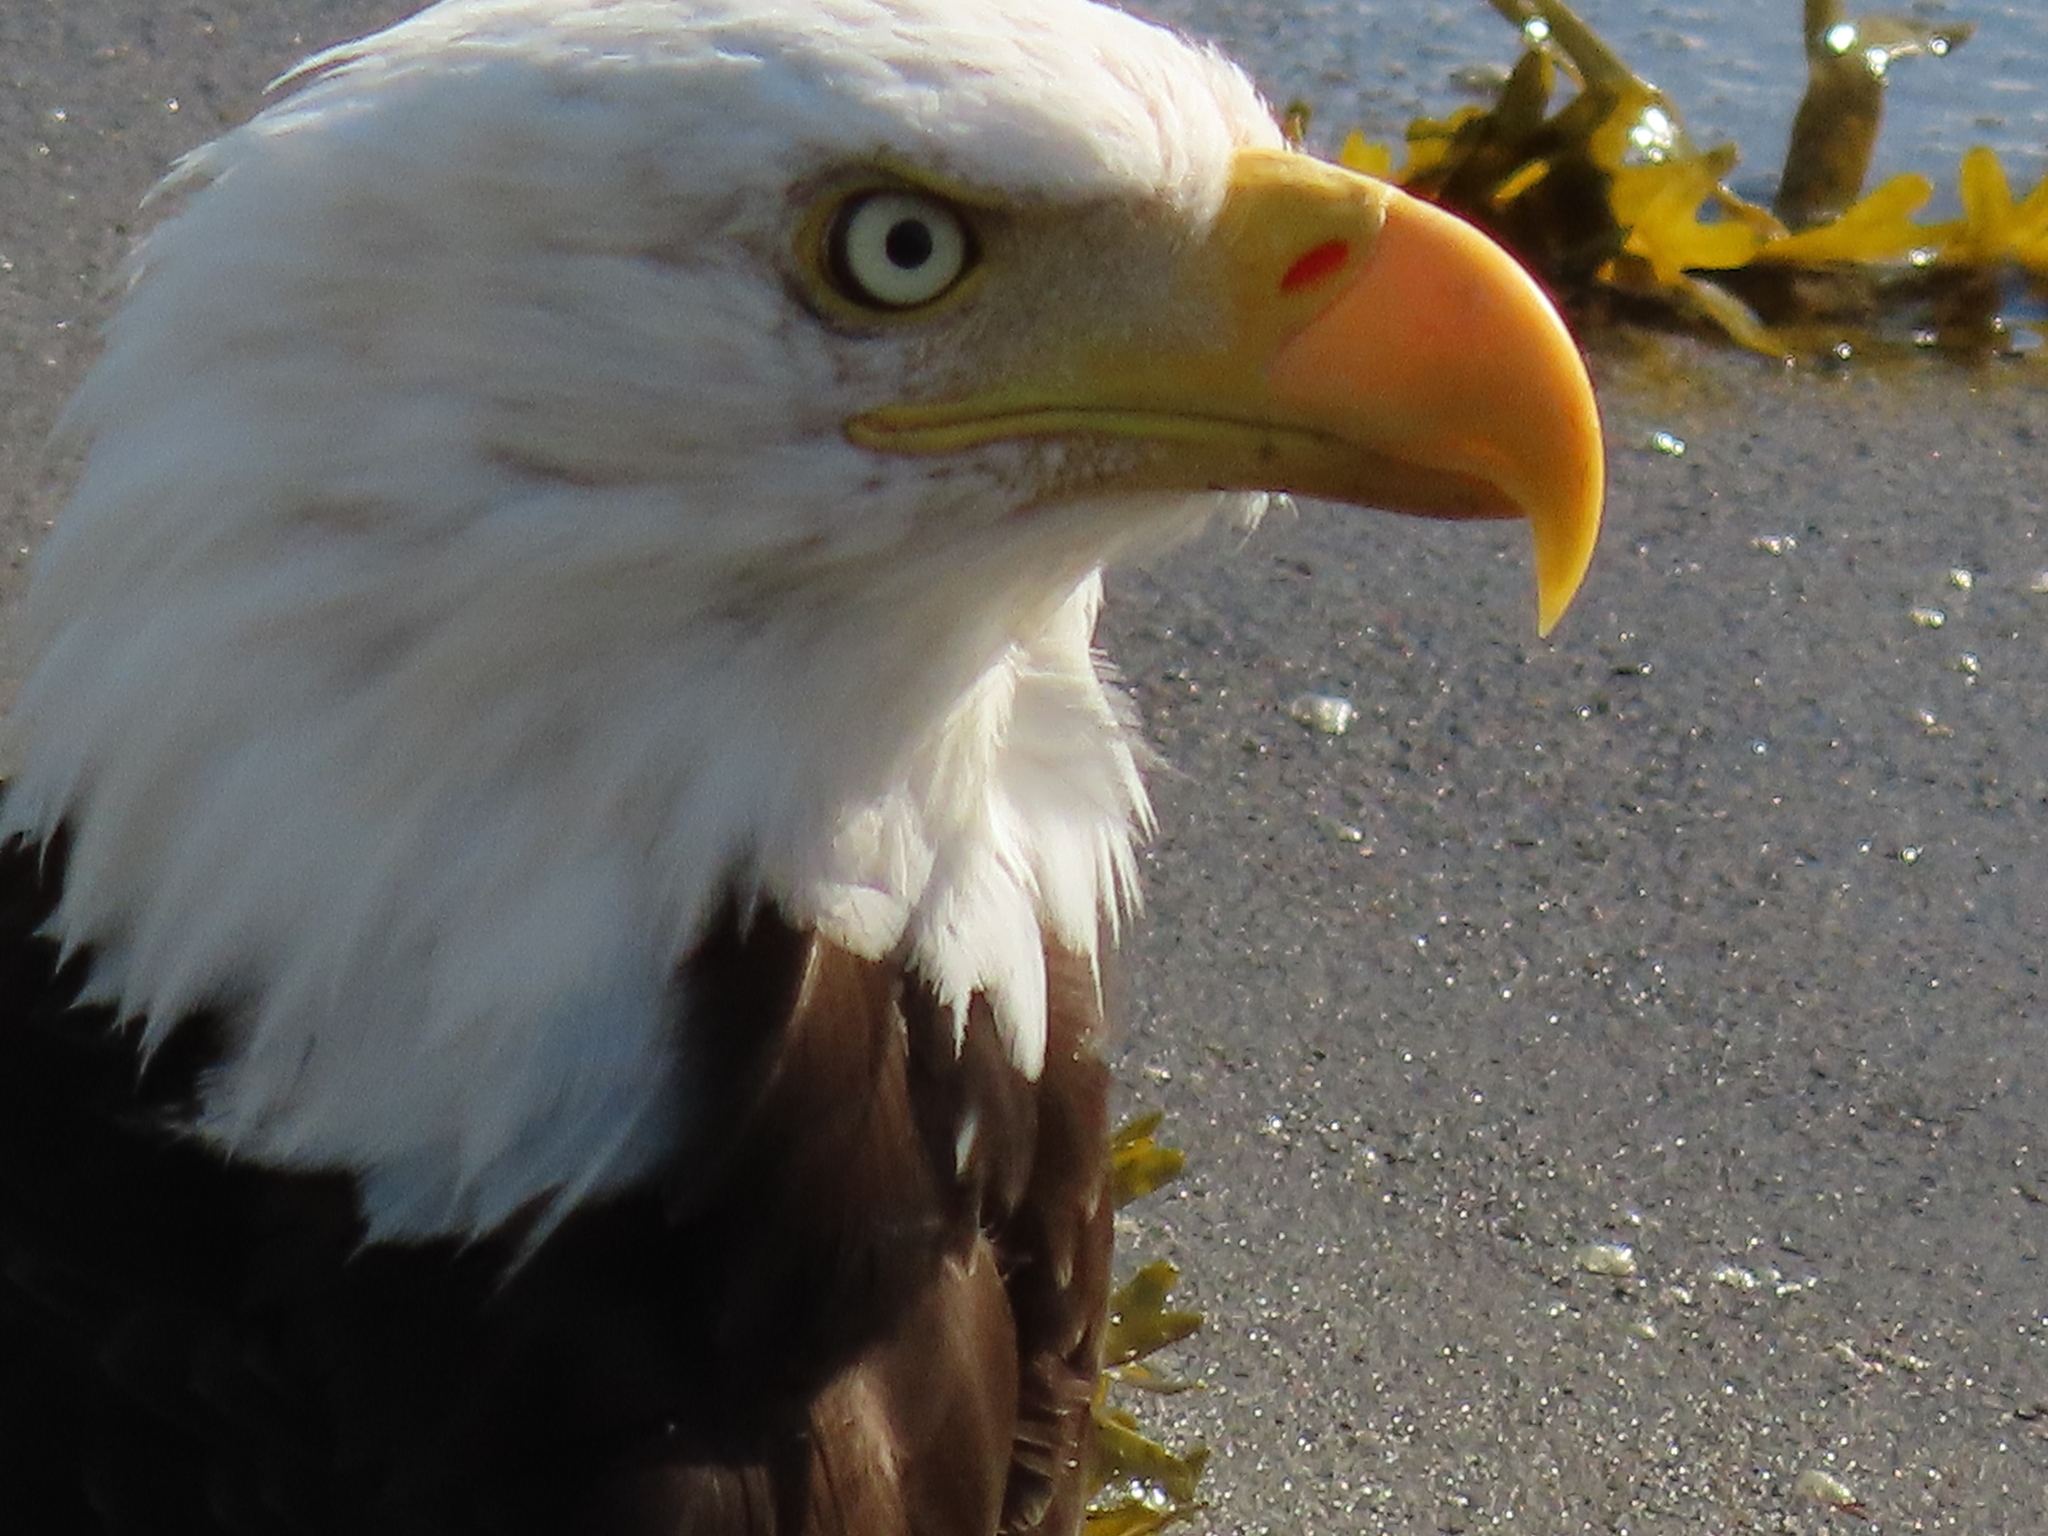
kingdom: Animalia
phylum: Chordata
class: Aves
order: Accipitriformes
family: Accipitridae
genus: Haliaeetus
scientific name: Haliaeetus leucocephalus
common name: Bald eagle
